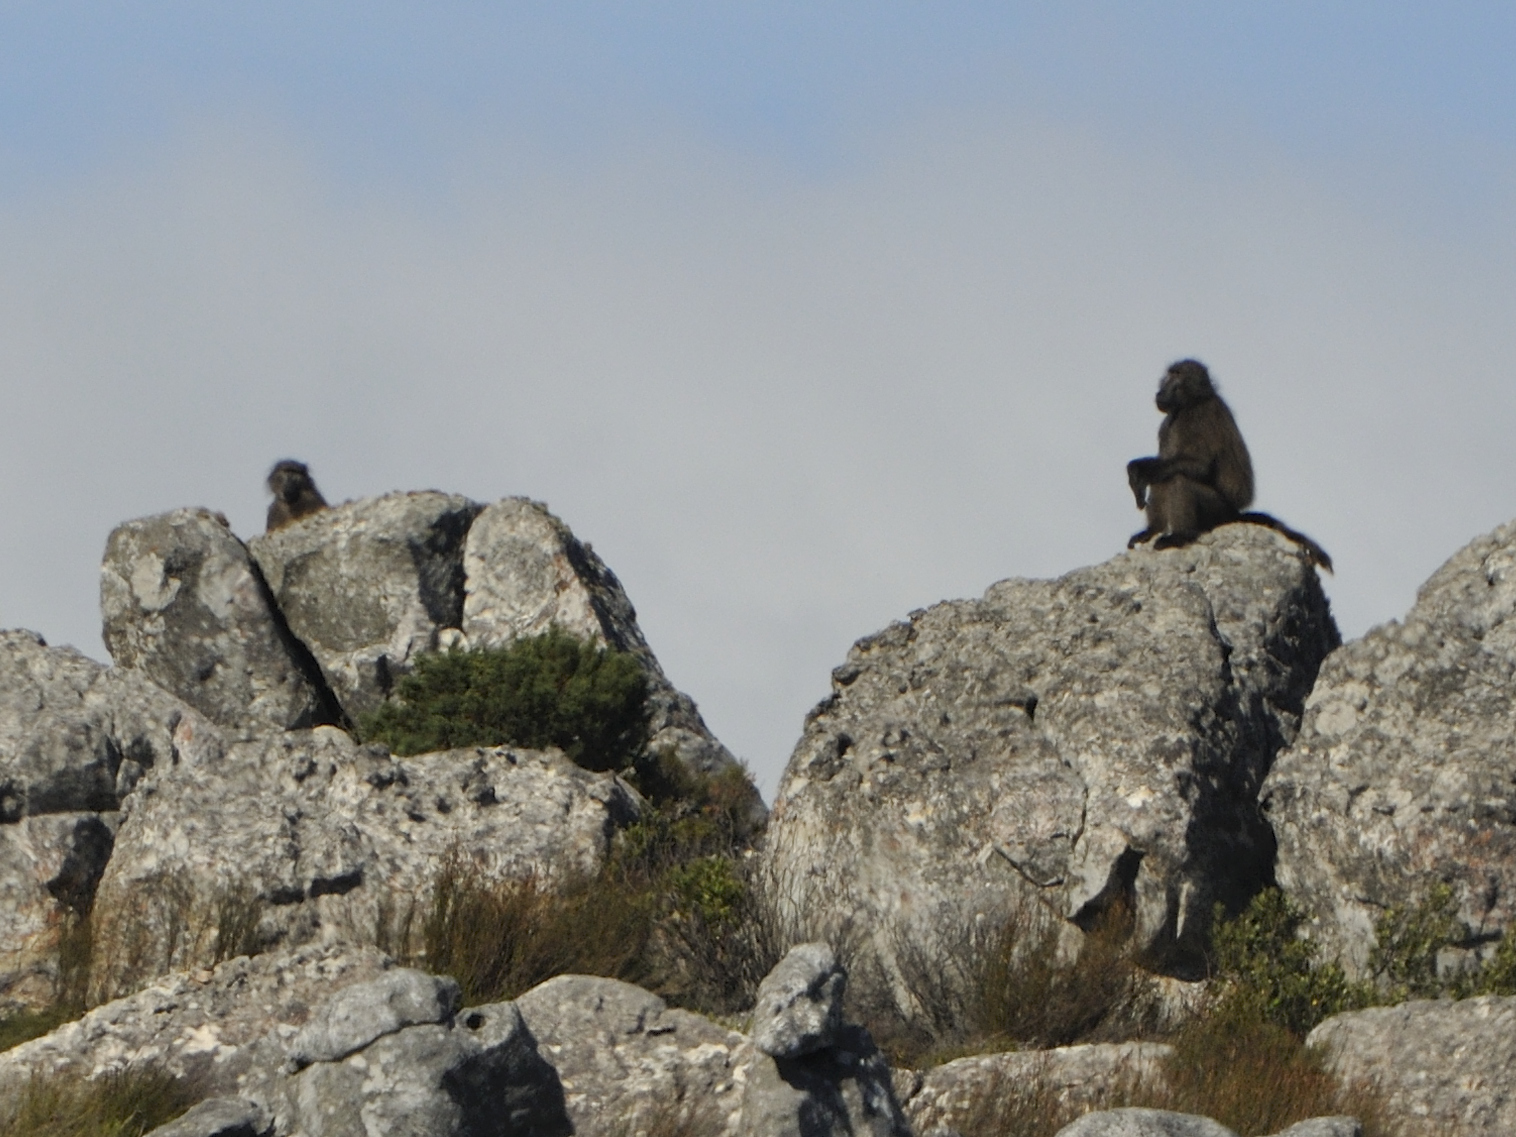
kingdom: Animalia
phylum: Chordata
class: Mammalia
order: Primates
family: Cercopithecidae
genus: Papio
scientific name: Papio ursinus
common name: Chacma baboon
